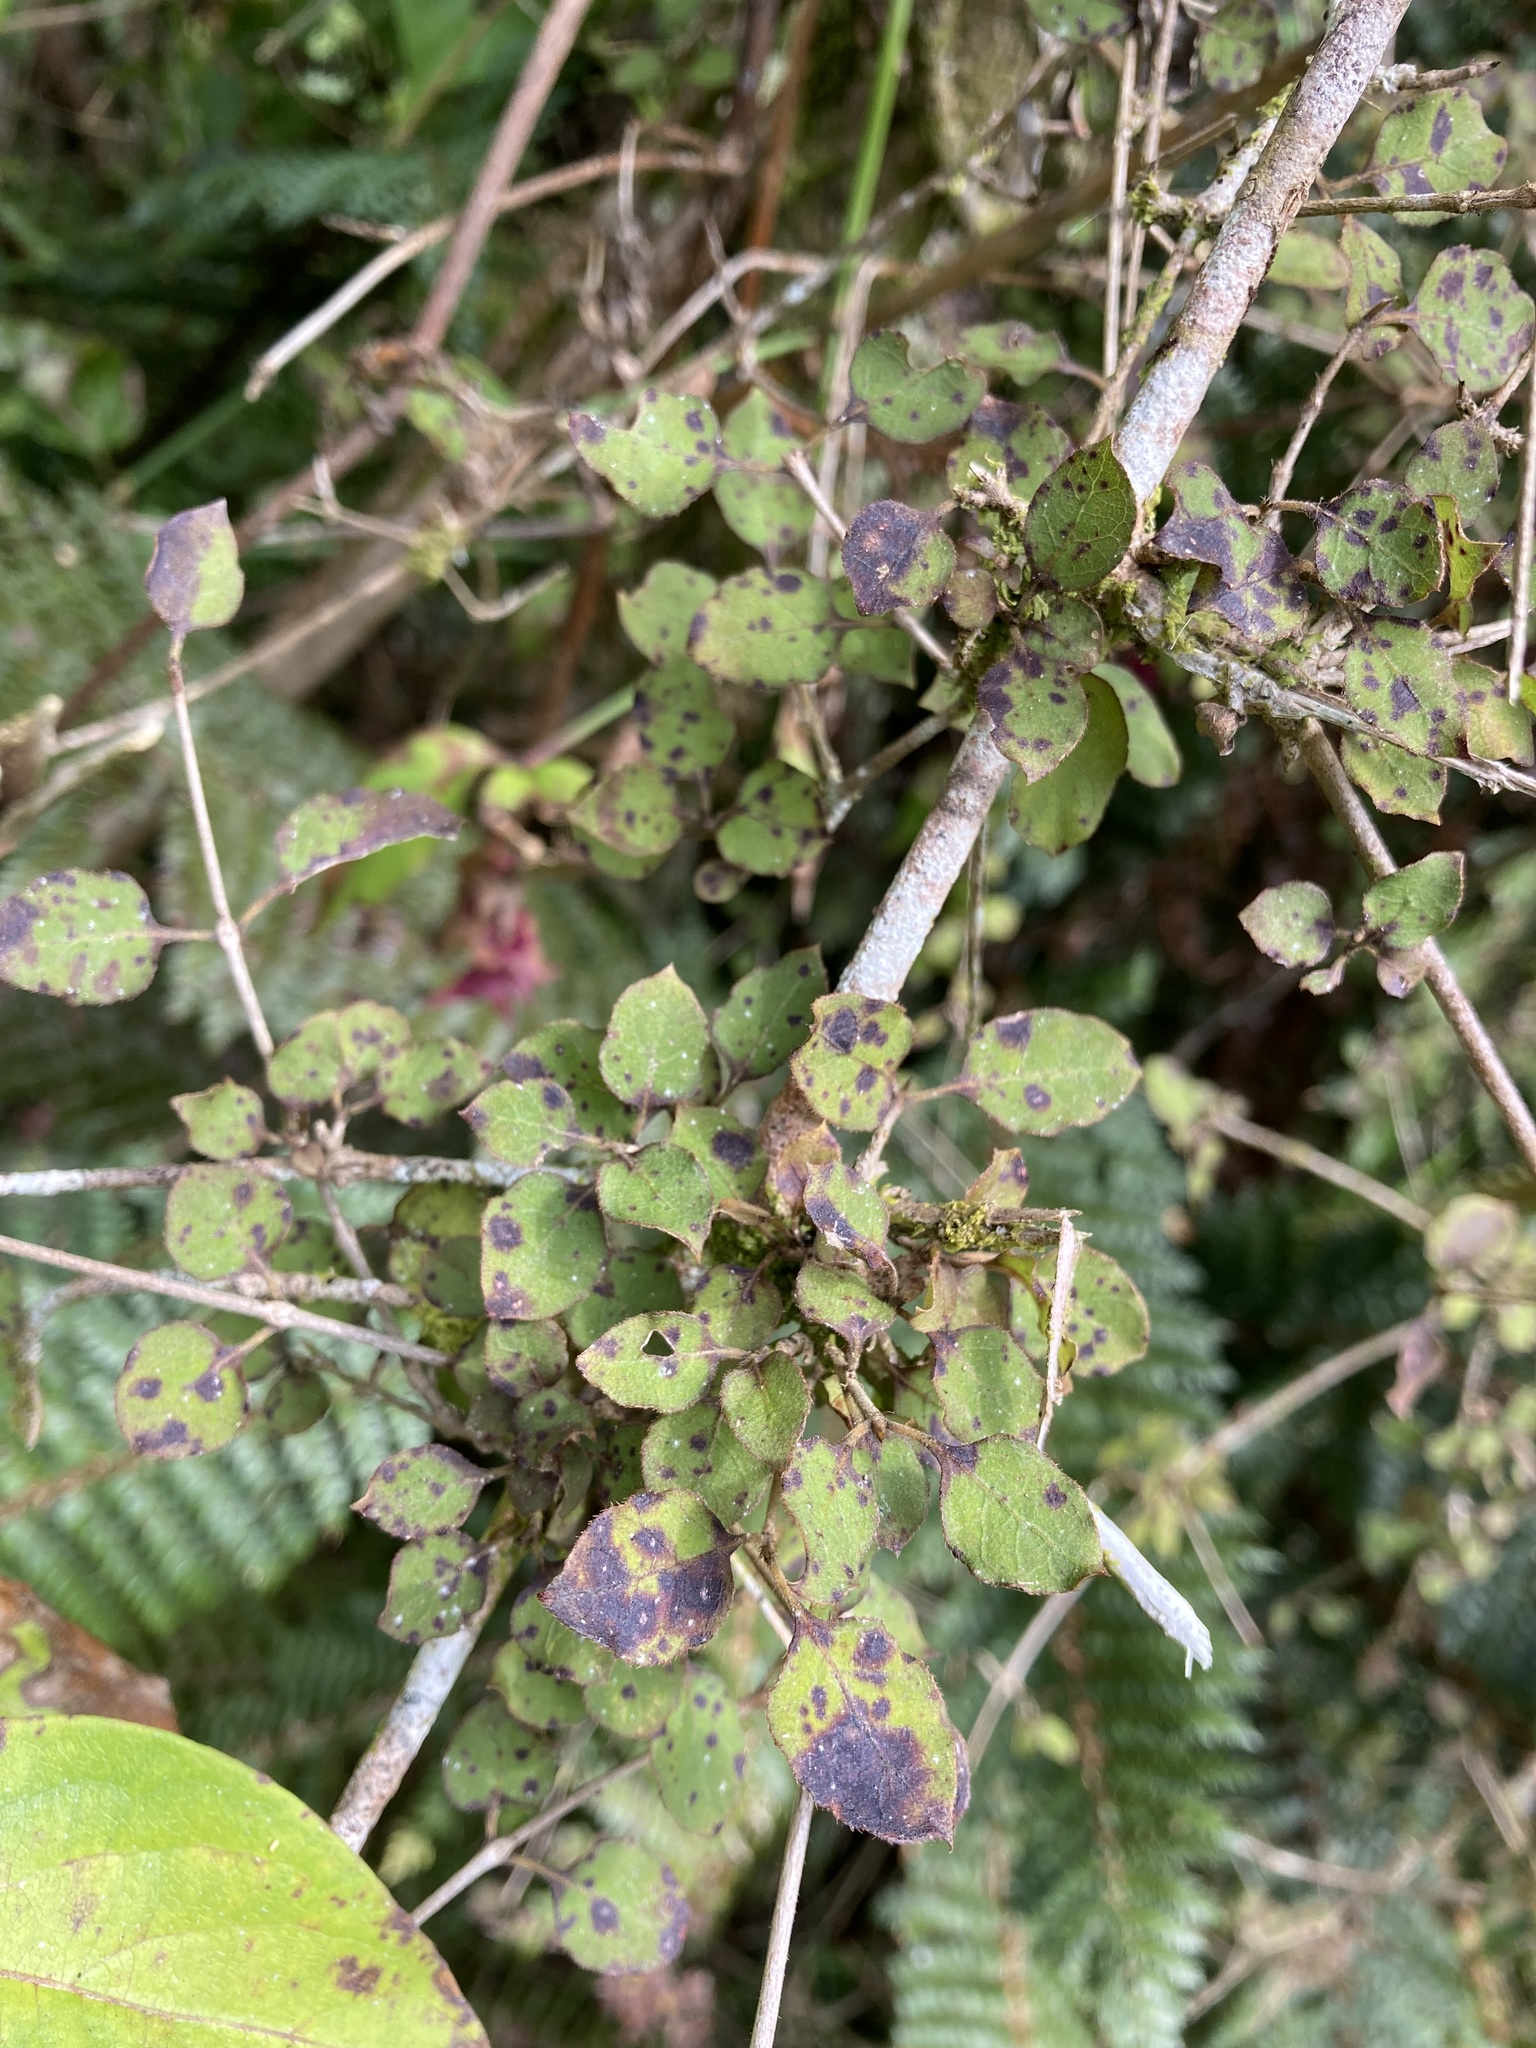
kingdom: Plantae
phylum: Tracheophyta
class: Magnoliopsida
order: Gentianales
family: Rubiaceae
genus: Coprosma
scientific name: Coprosma rotundifolia
